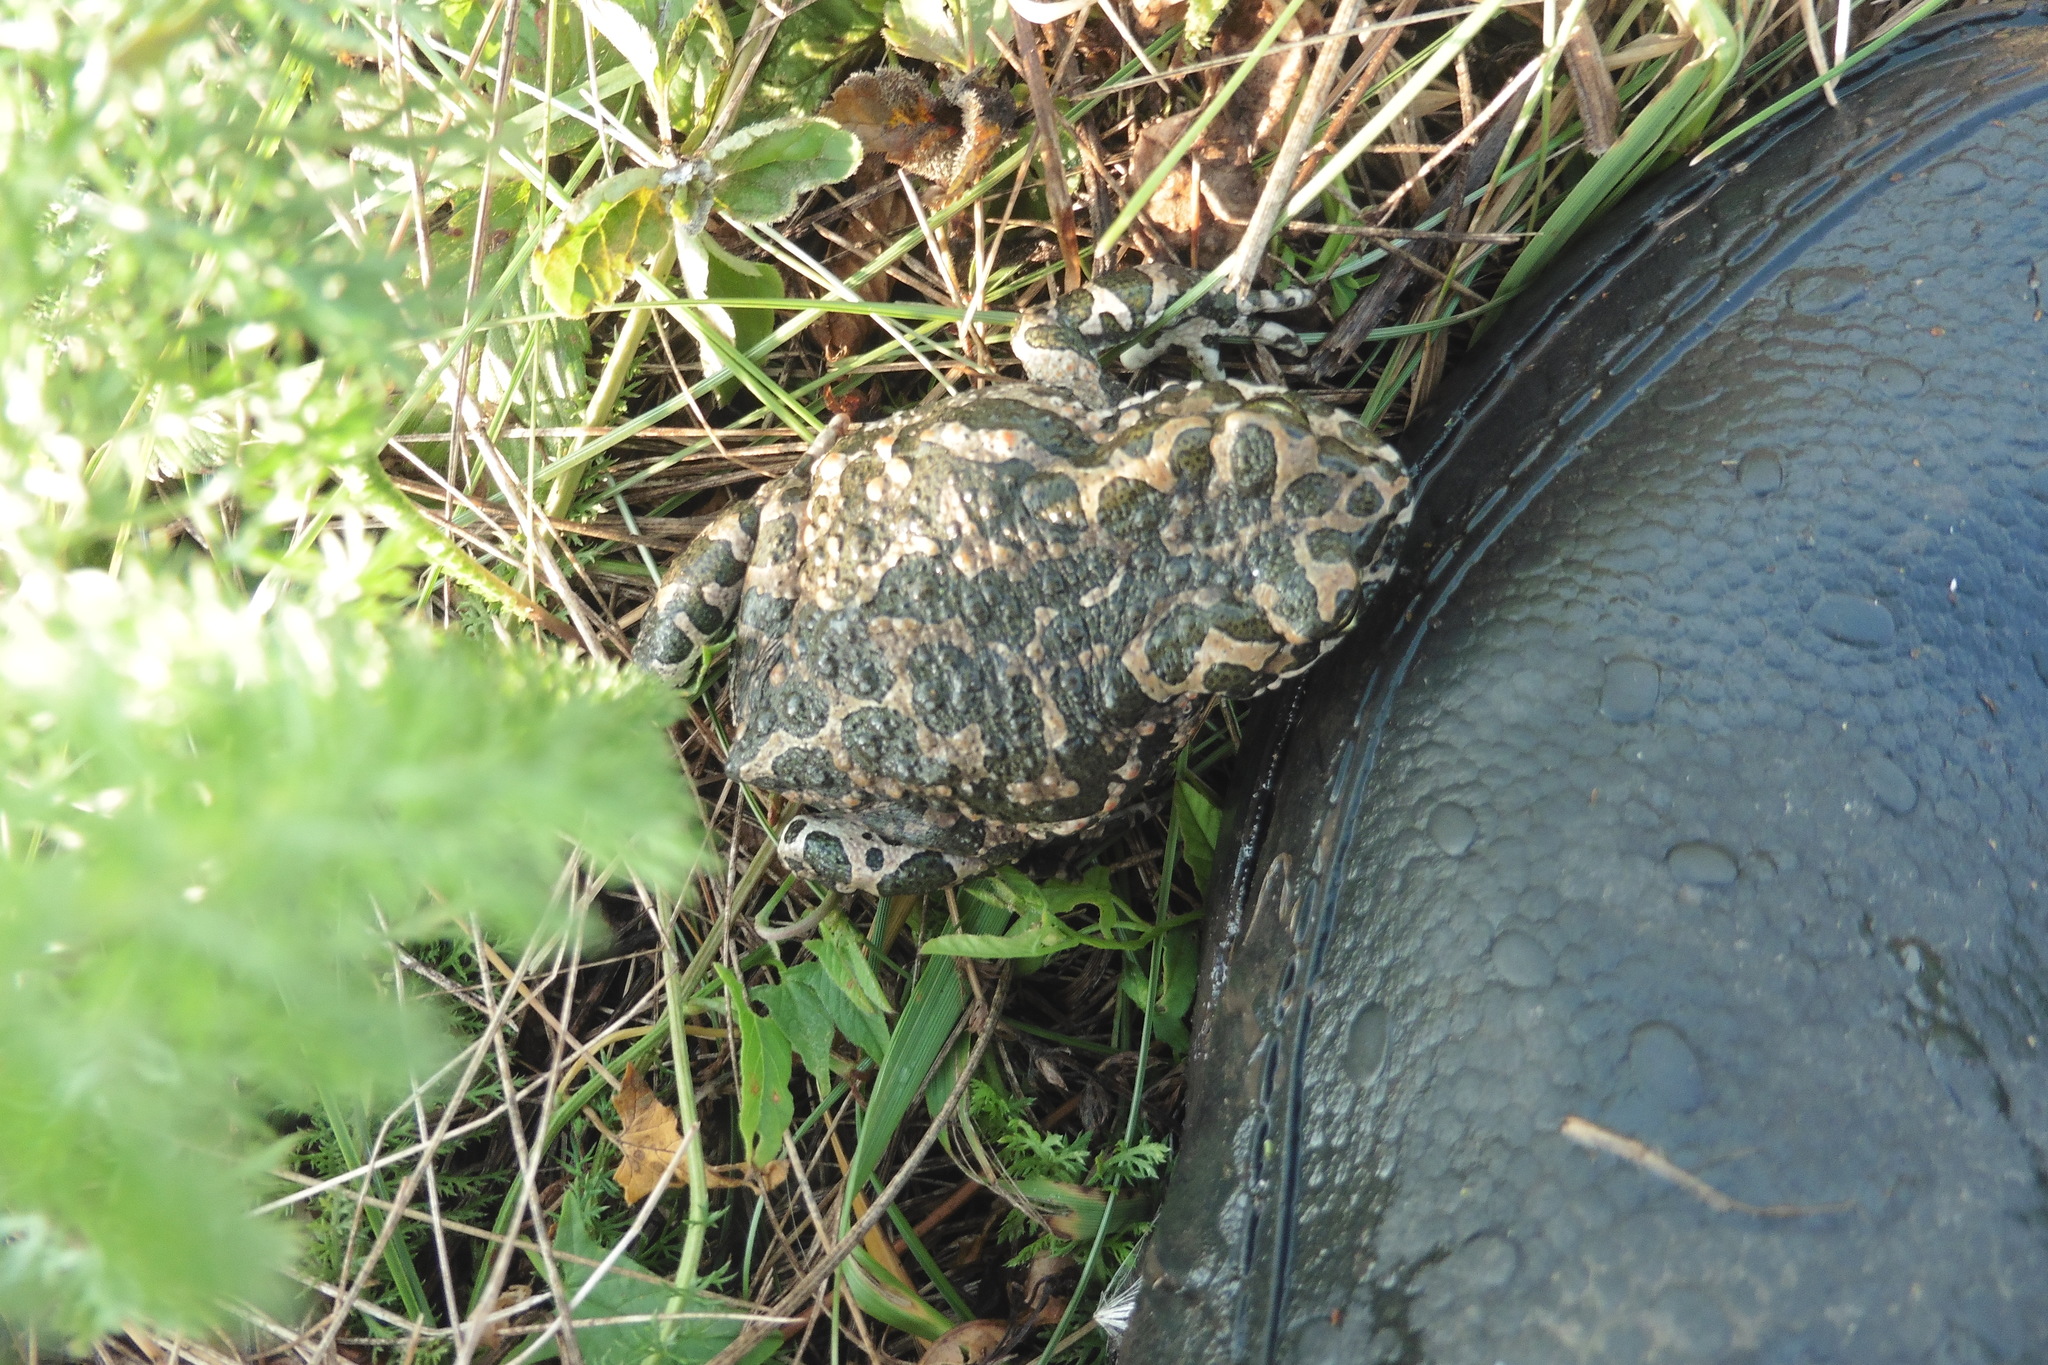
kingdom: Animalia
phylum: Chordata
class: Amphibia
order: Anura
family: Bufonidae
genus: Bufotes
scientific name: Bufotes viridis
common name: European green toad
